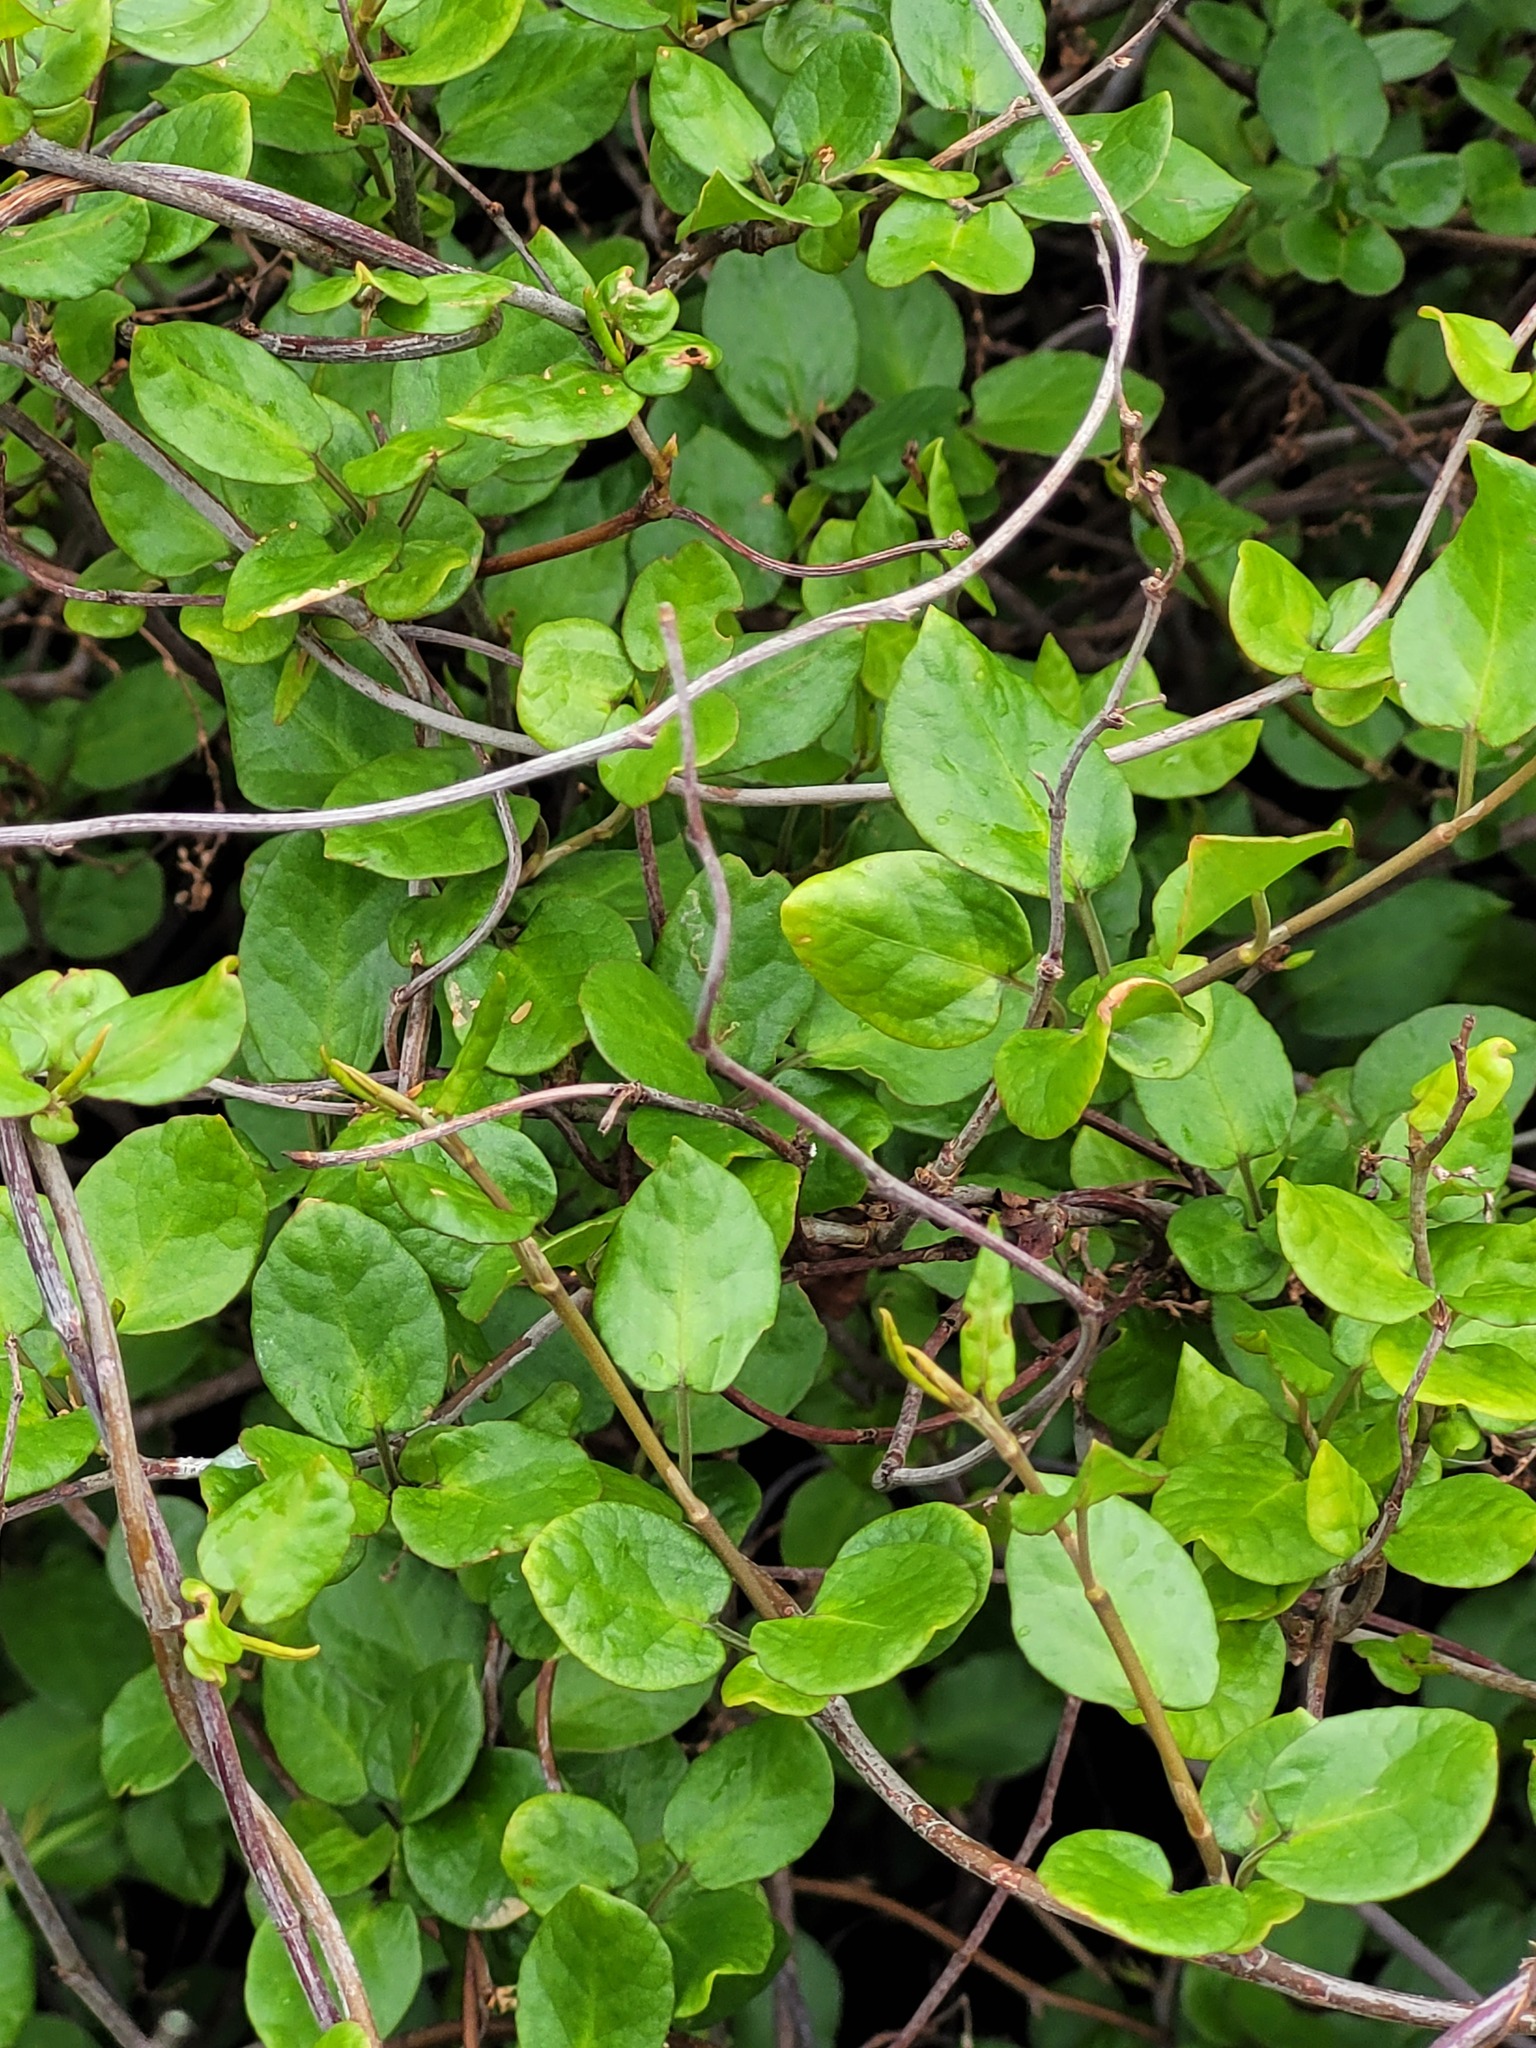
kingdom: Plantae
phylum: Tracheophyta
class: Magnoliopsida
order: Caryophyllales
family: Polygonaceae
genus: Muehlenbeckia
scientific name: Muehlenbeckia australis
